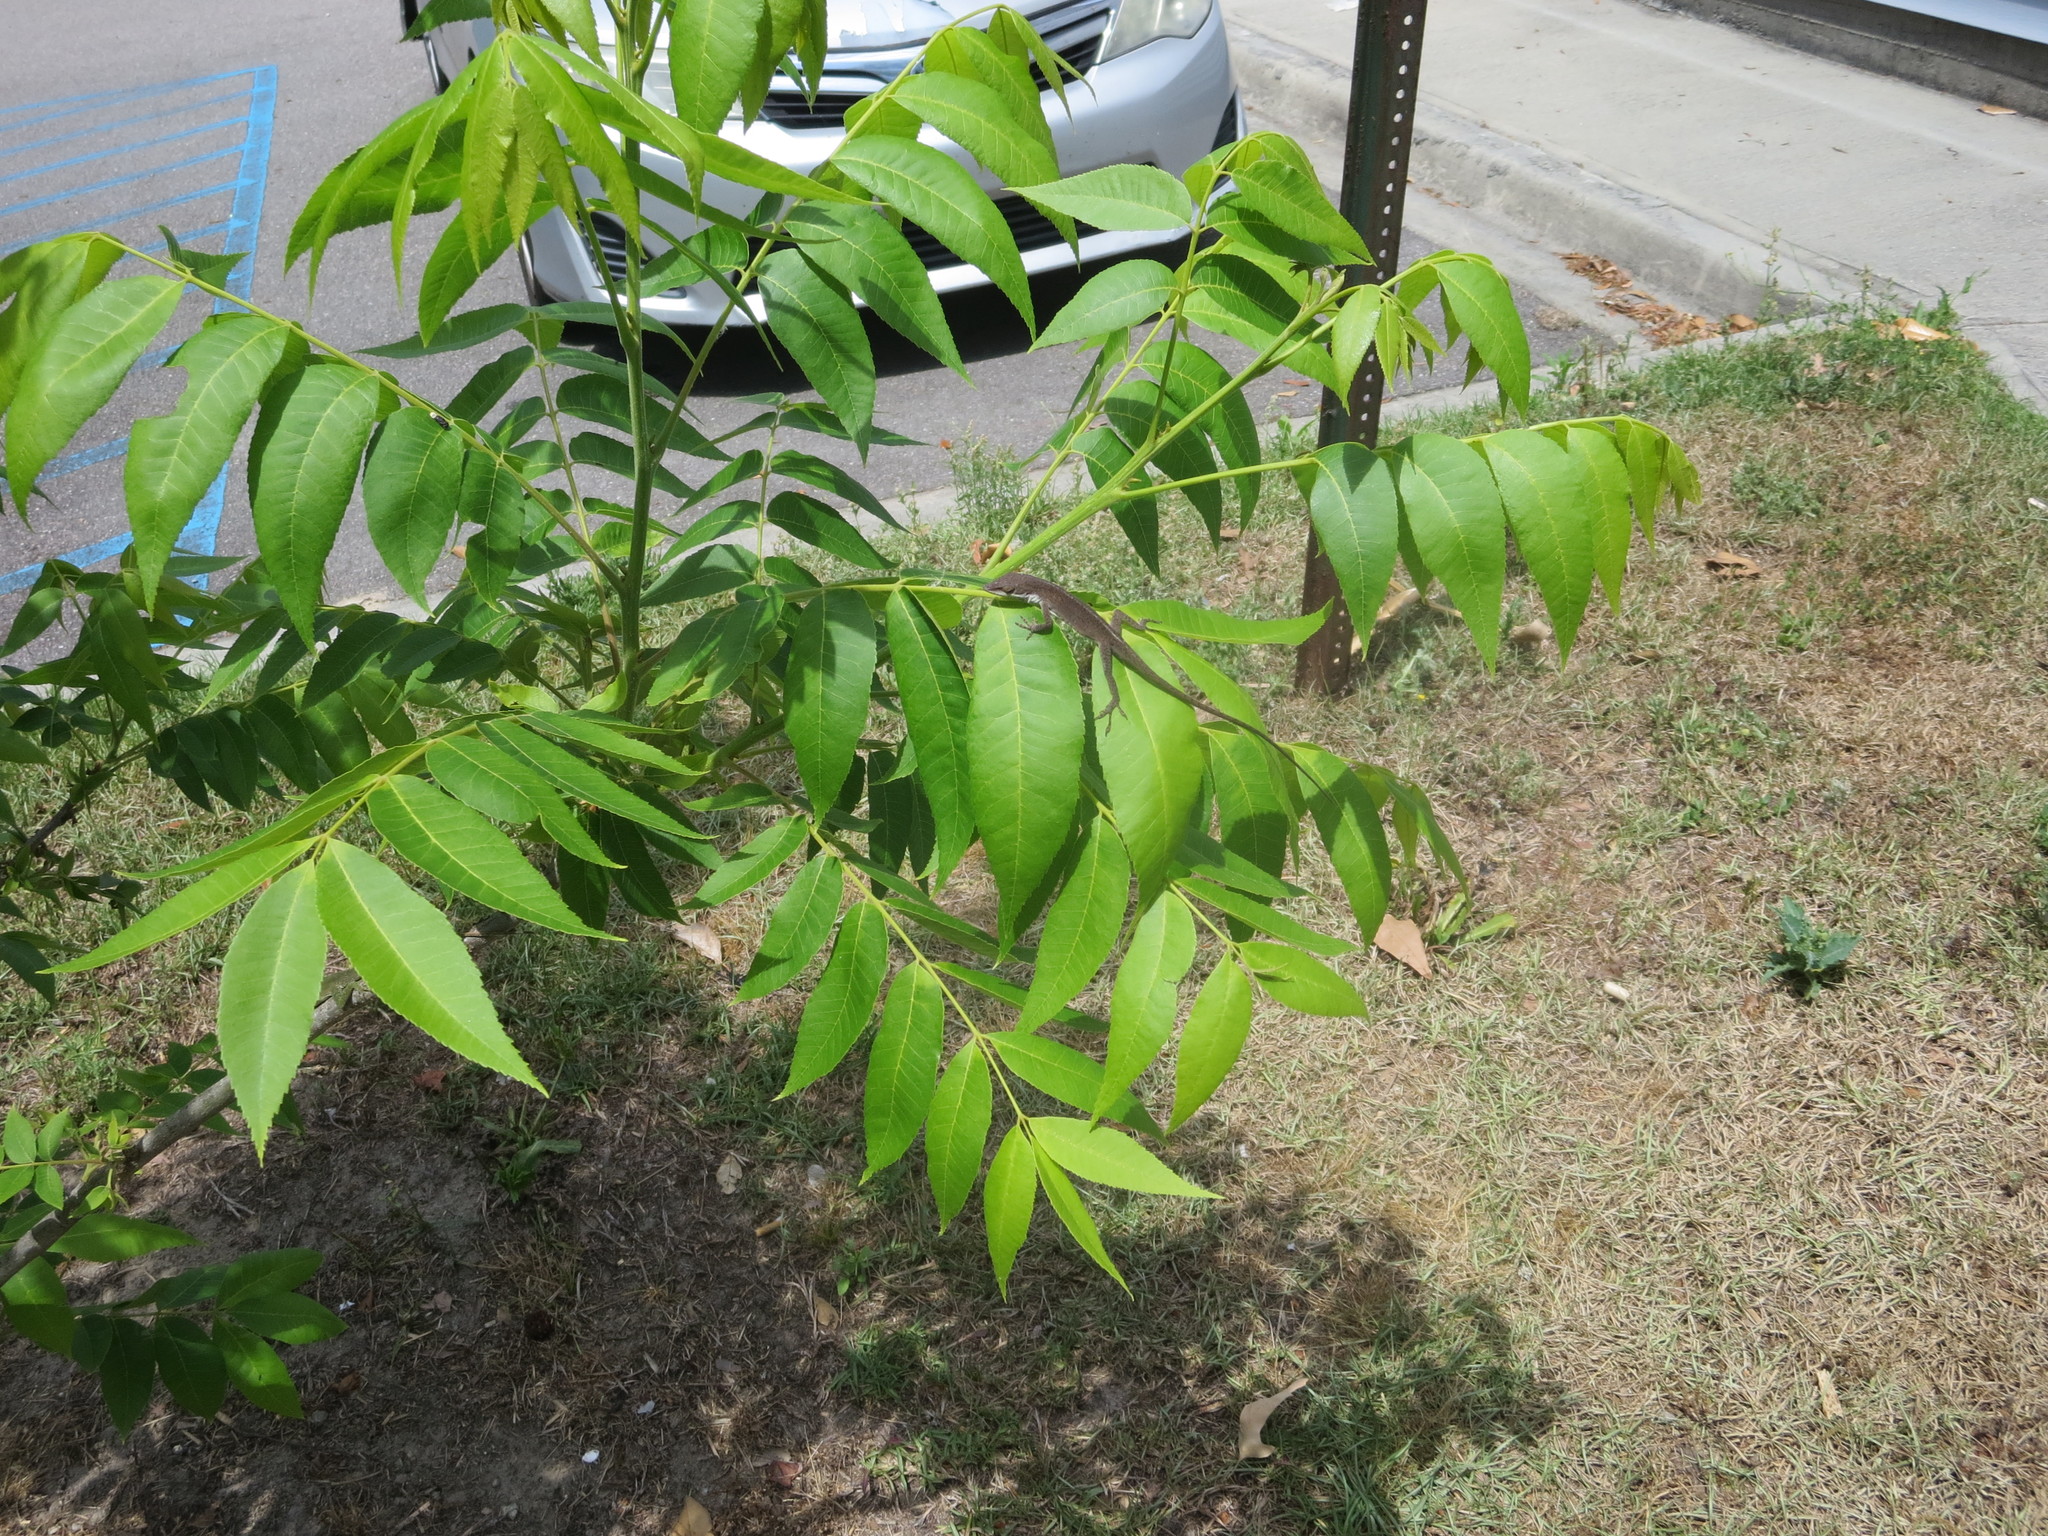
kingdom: Animalia
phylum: Chordata
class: Squamata
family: Dactyloidae
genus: Anolis
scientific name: Anolis carolinensis
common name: Green anole
